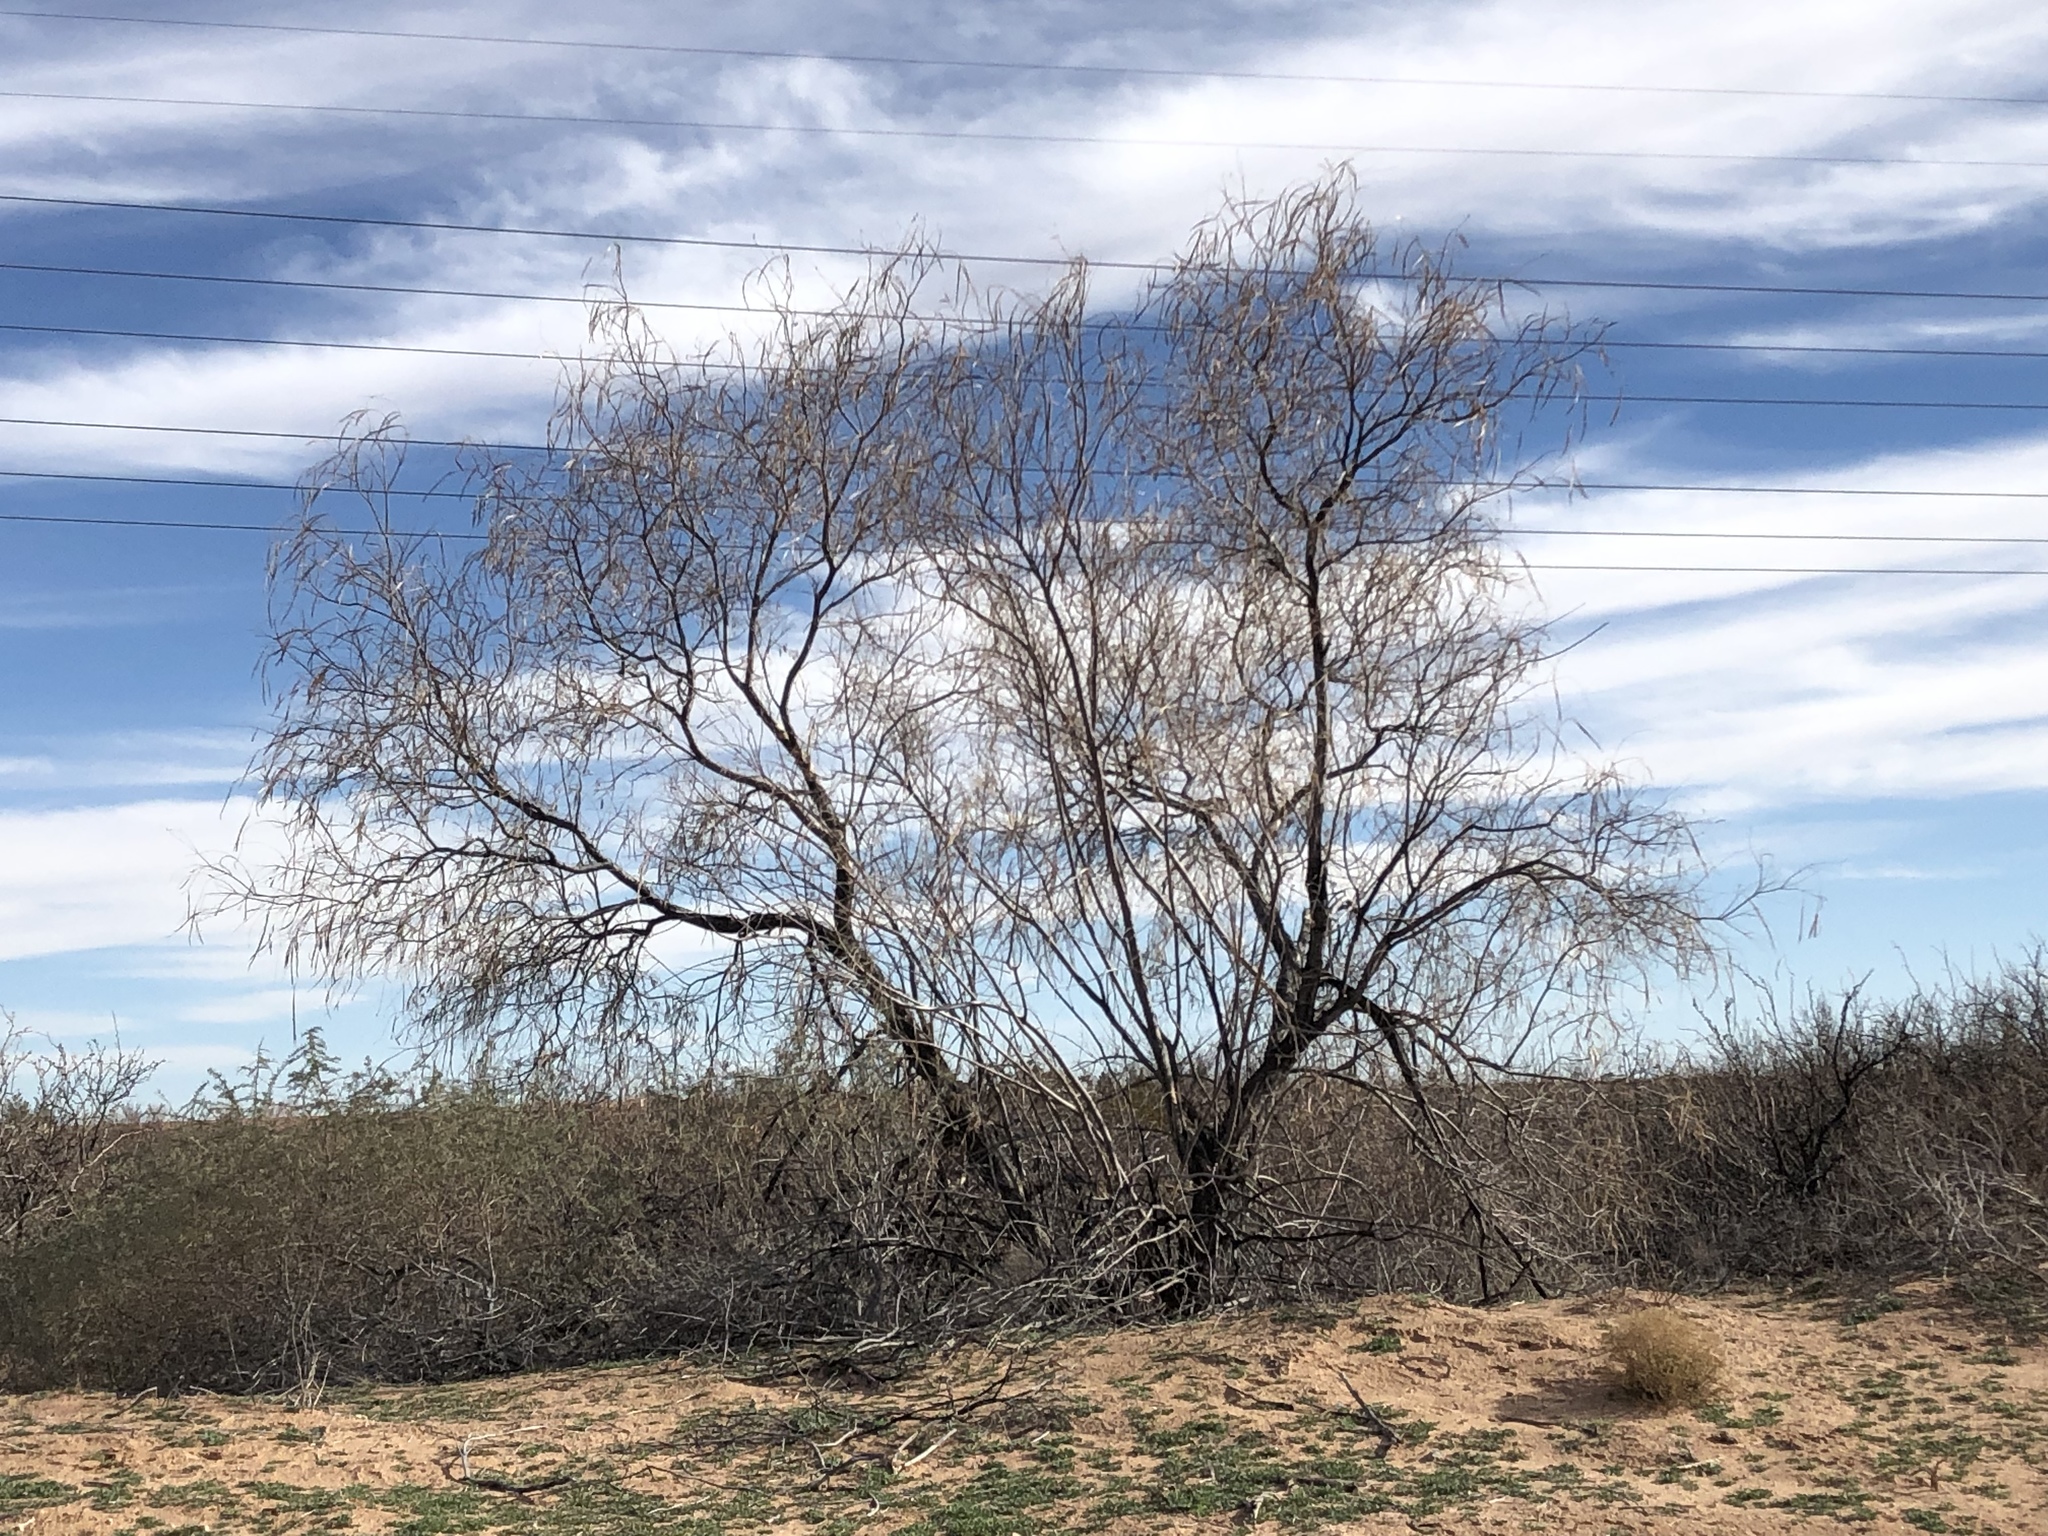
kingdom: Plantae
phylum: Tracheophyta
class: Magnoliopsida
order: Lamiales
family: Bignoniaceae
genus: Chilopsis
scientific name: Chilopsis linearis
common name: Desert-willow
